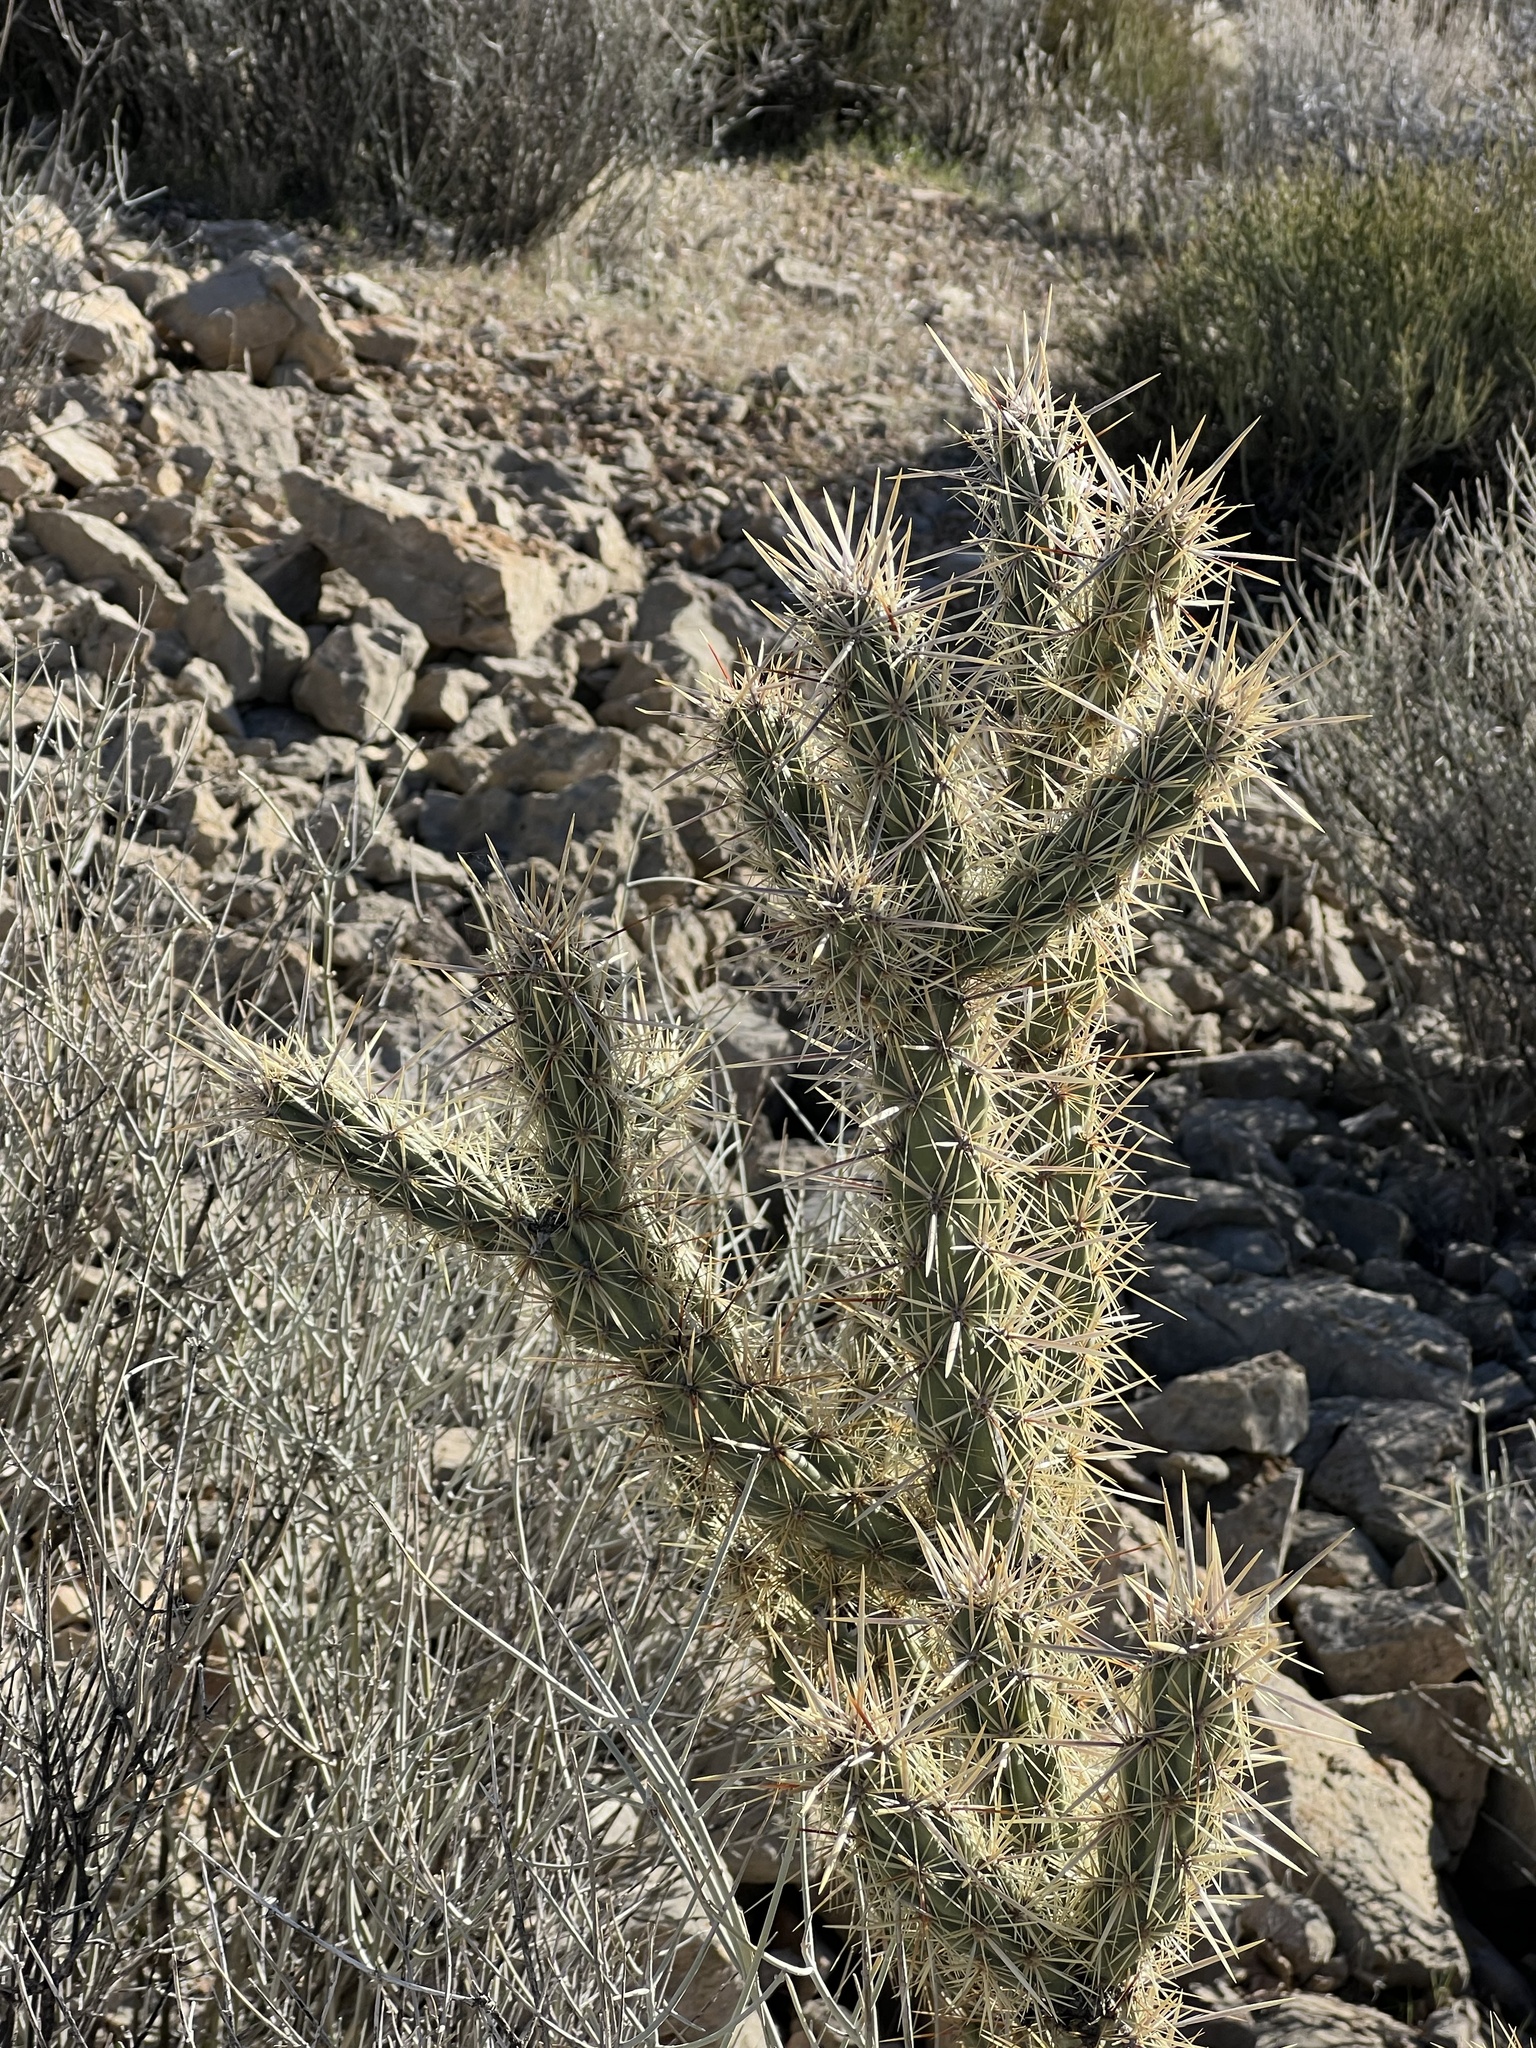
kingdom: Plantae
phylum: Tracheophyta
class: Magnoliopsida
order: Caryophyllales
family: Cactaceae
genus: Cylindropuntia
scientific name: Cylindropuntia acanthocarpa
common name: Buckhorn cholla
